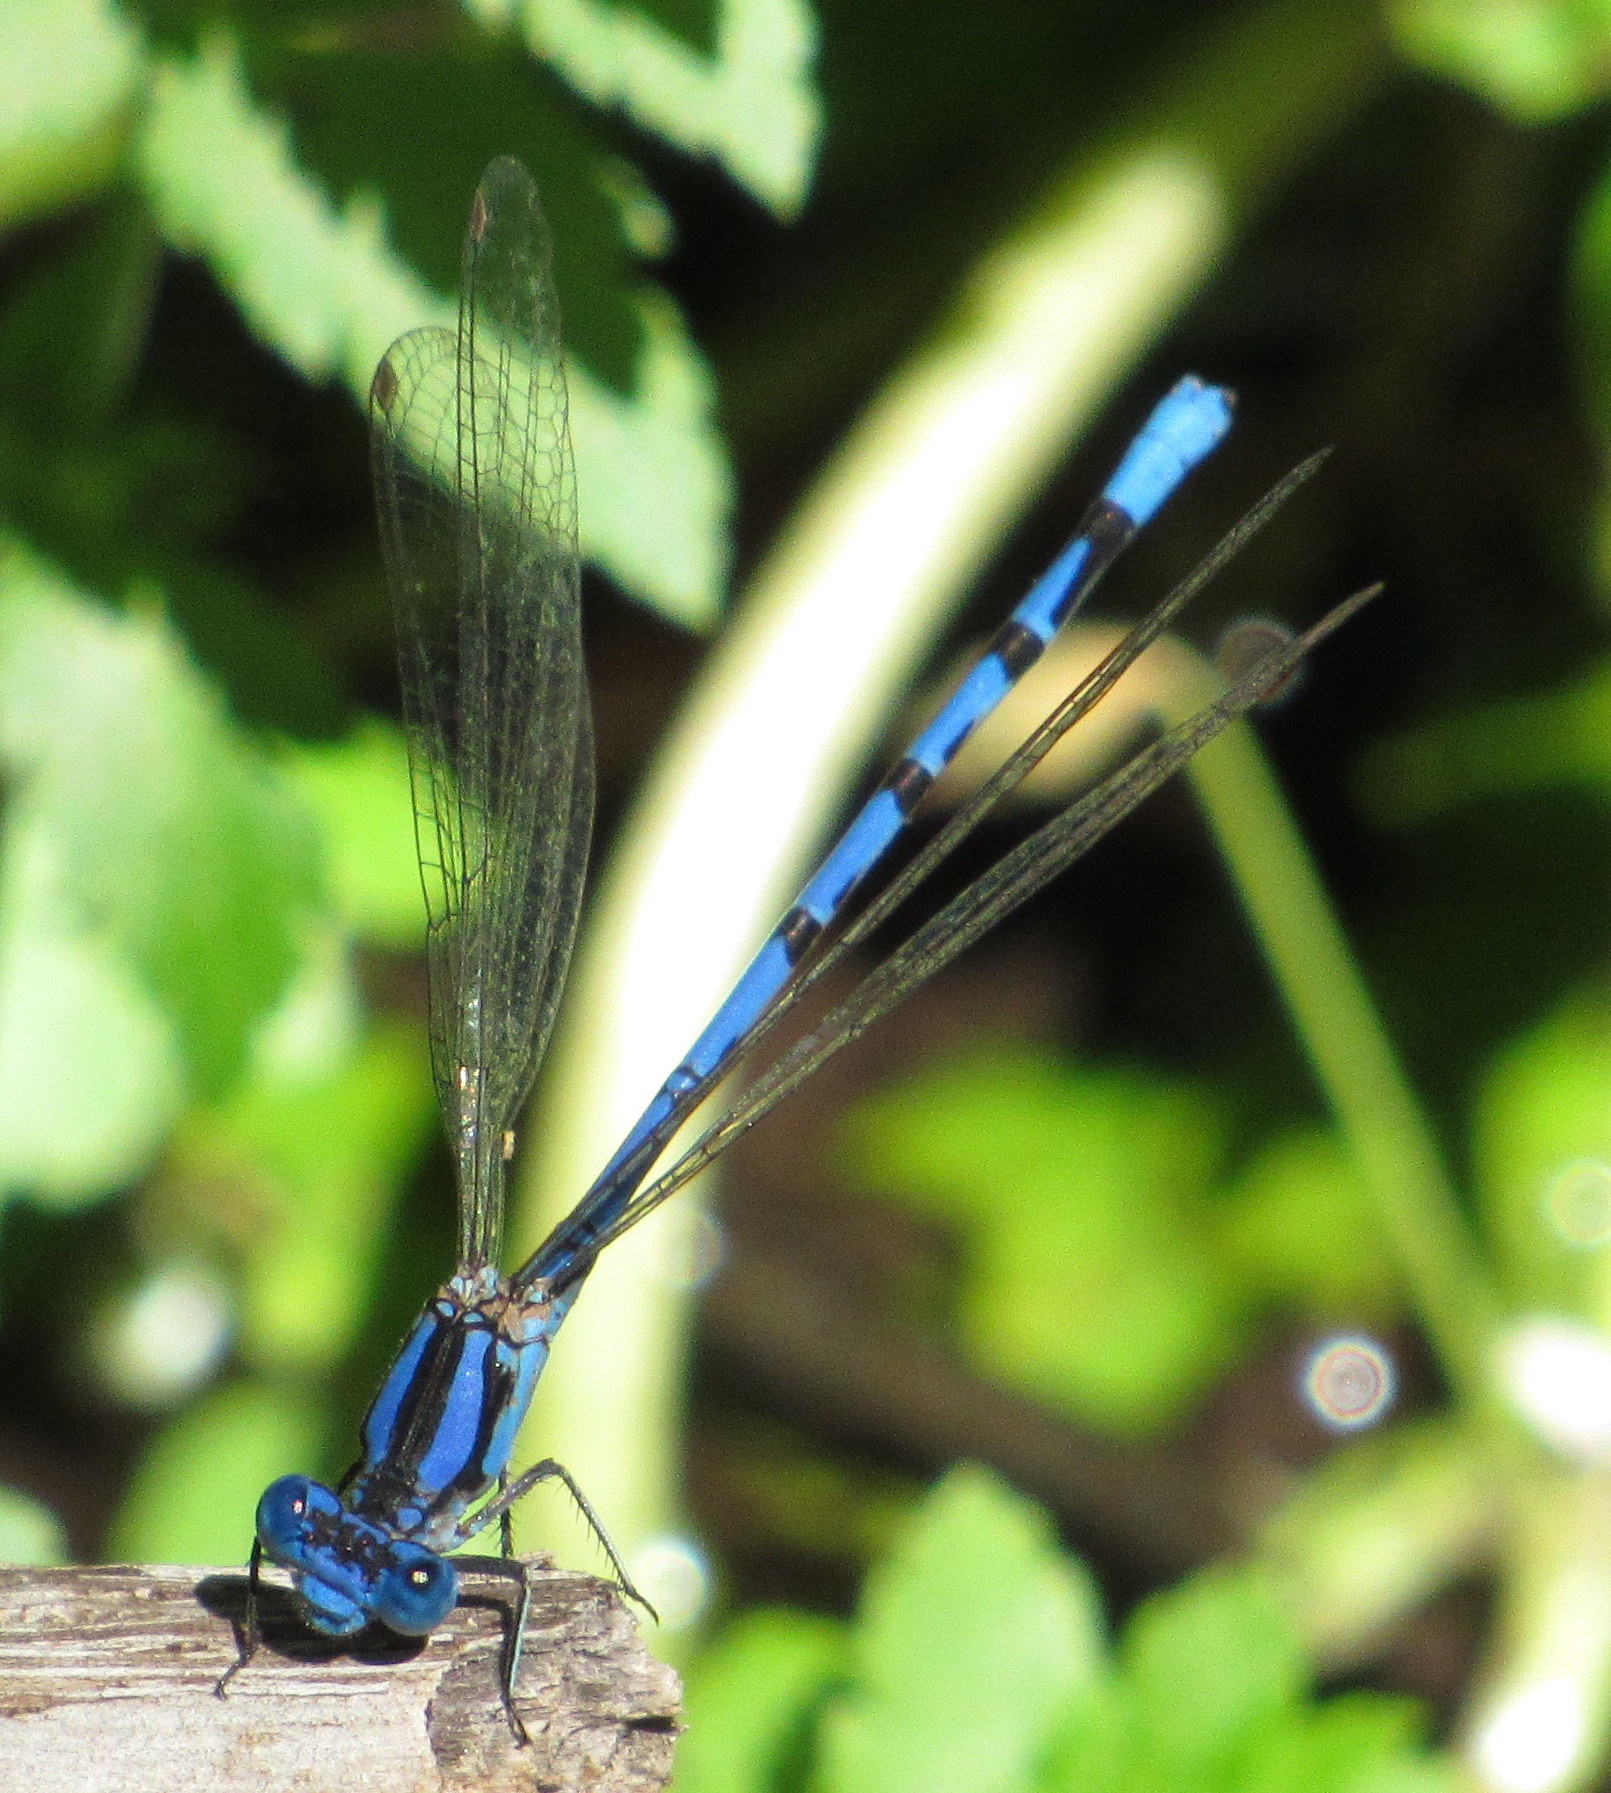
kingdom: Animalia
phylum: Arthropoda
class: Insecta
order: Odonata
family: Coenagrionidae
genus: Argia
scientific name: Argia funebris
